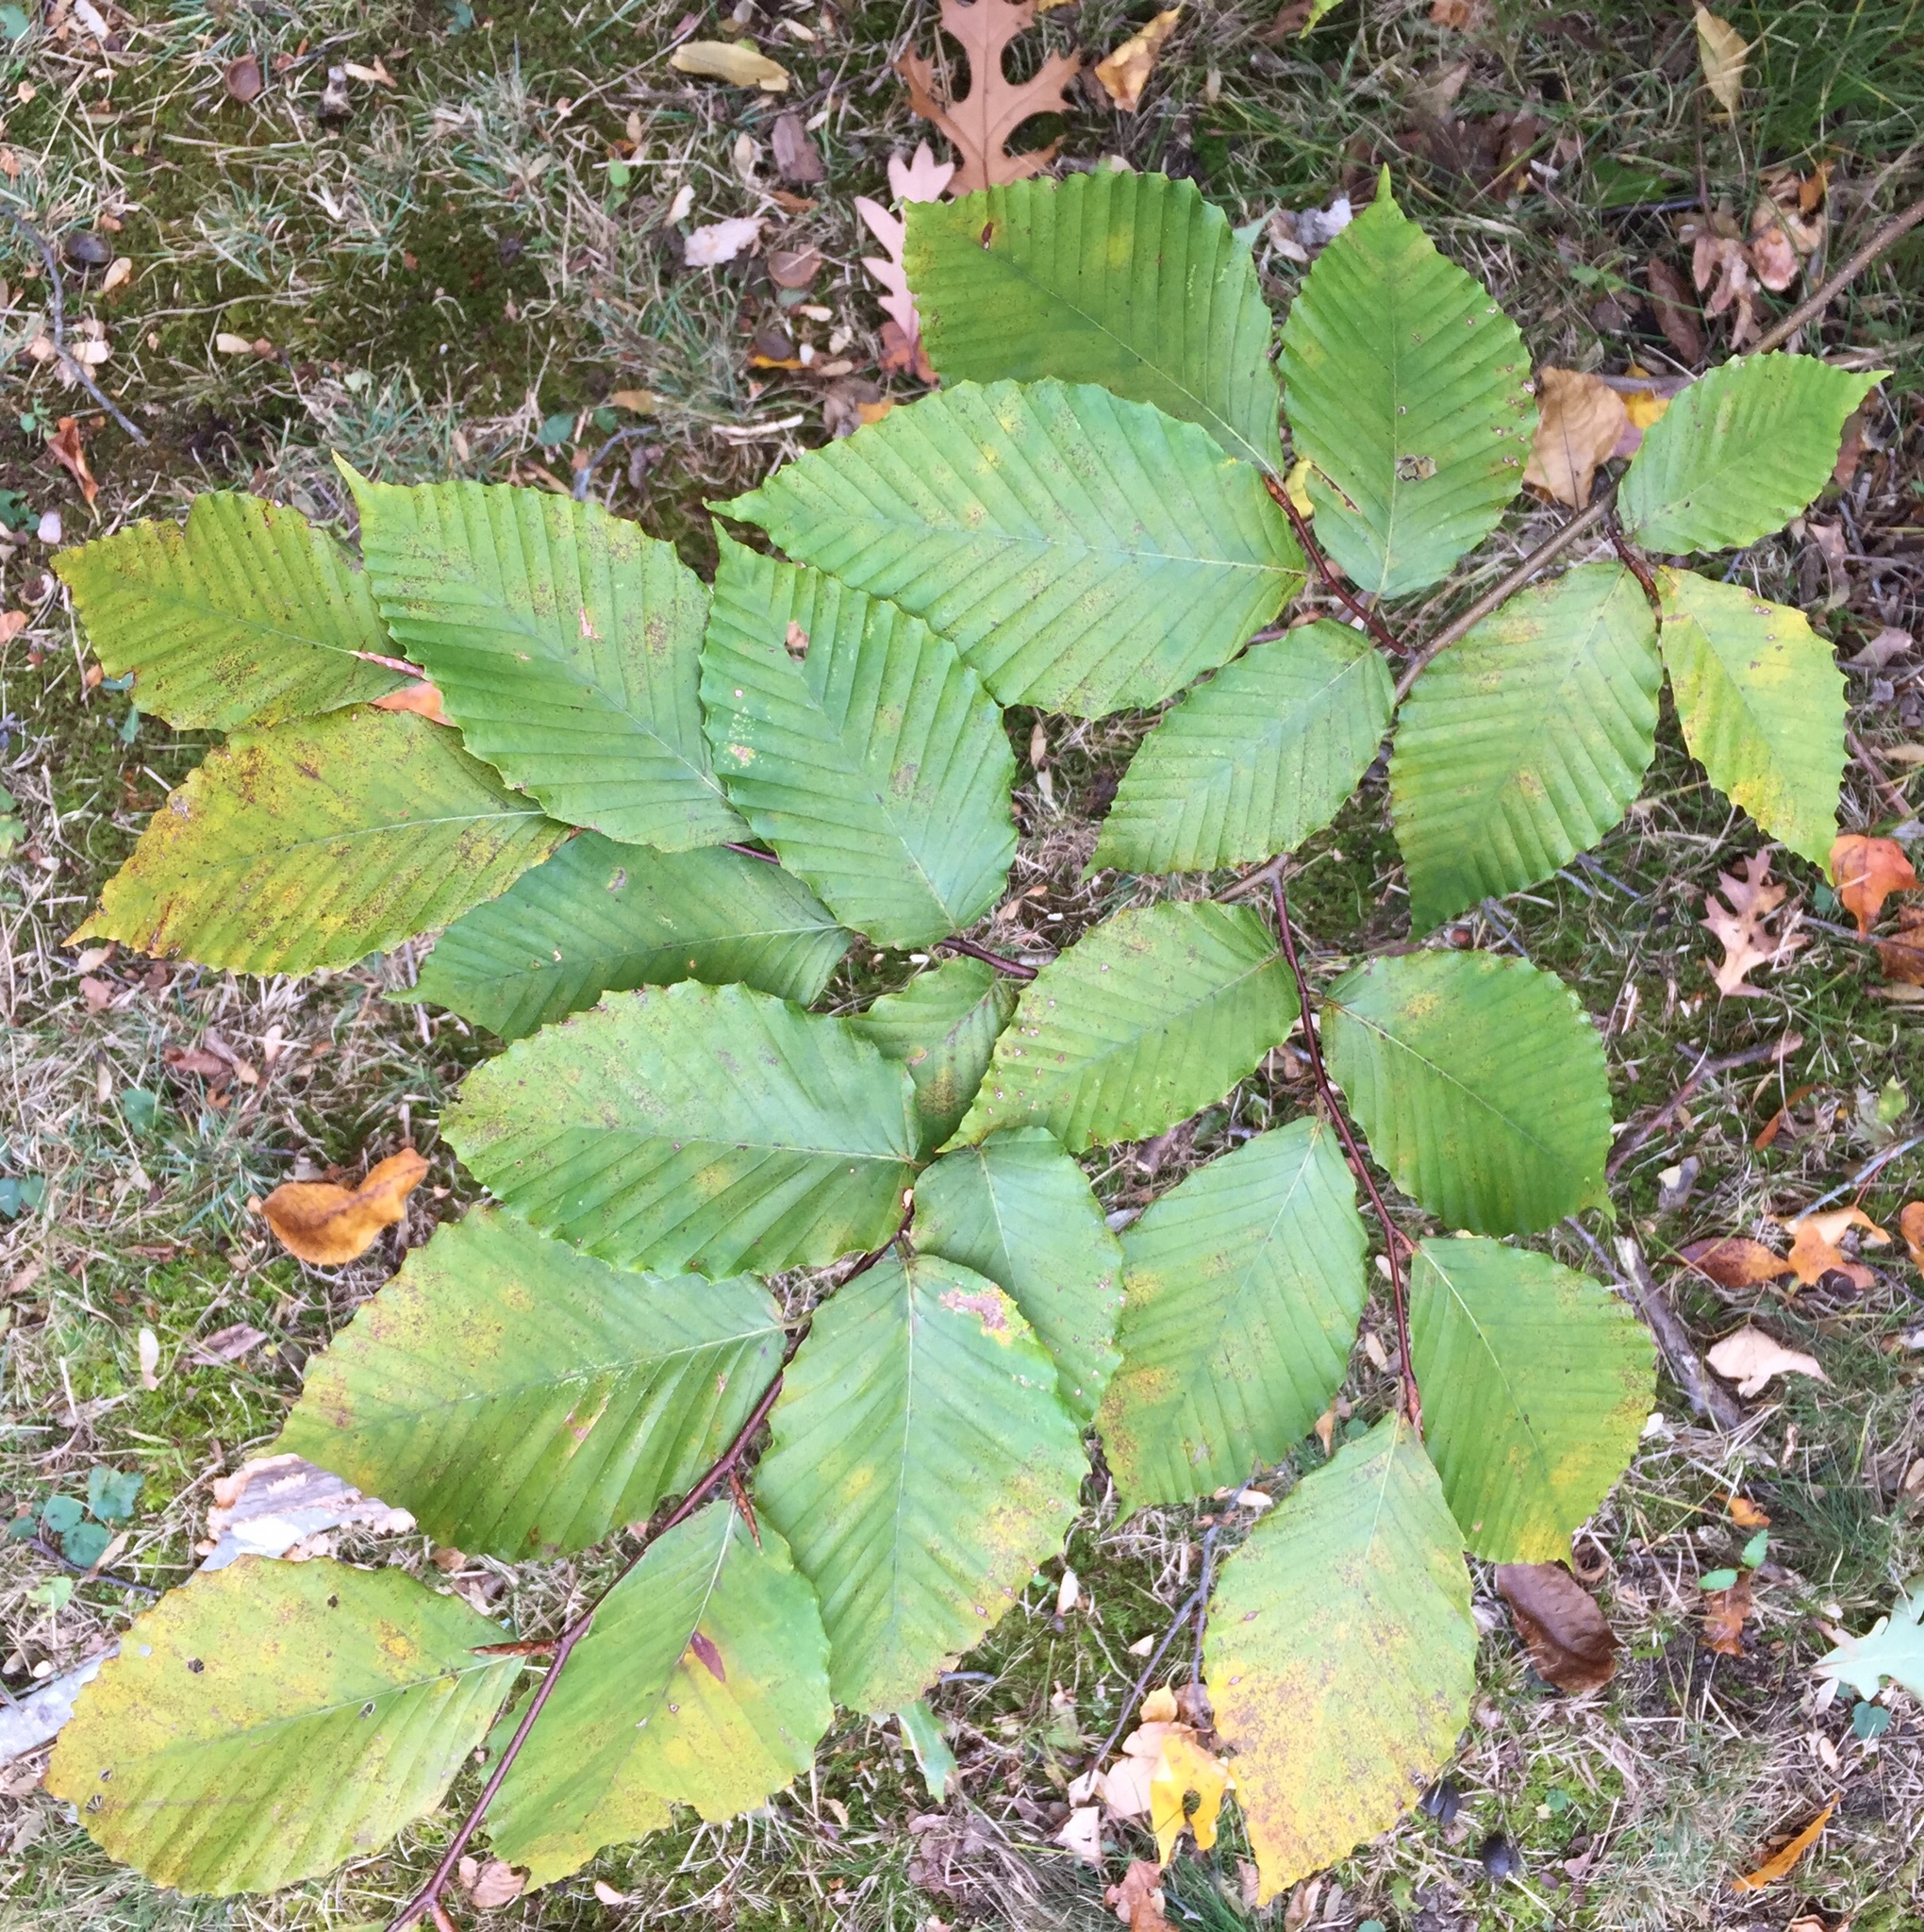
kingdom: Plantae
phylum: Tracheophyta
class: Magnoliopsida
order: Fagales
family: Fagaceae
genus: Fagus
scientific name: Fagus grandifolia
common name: American beech
